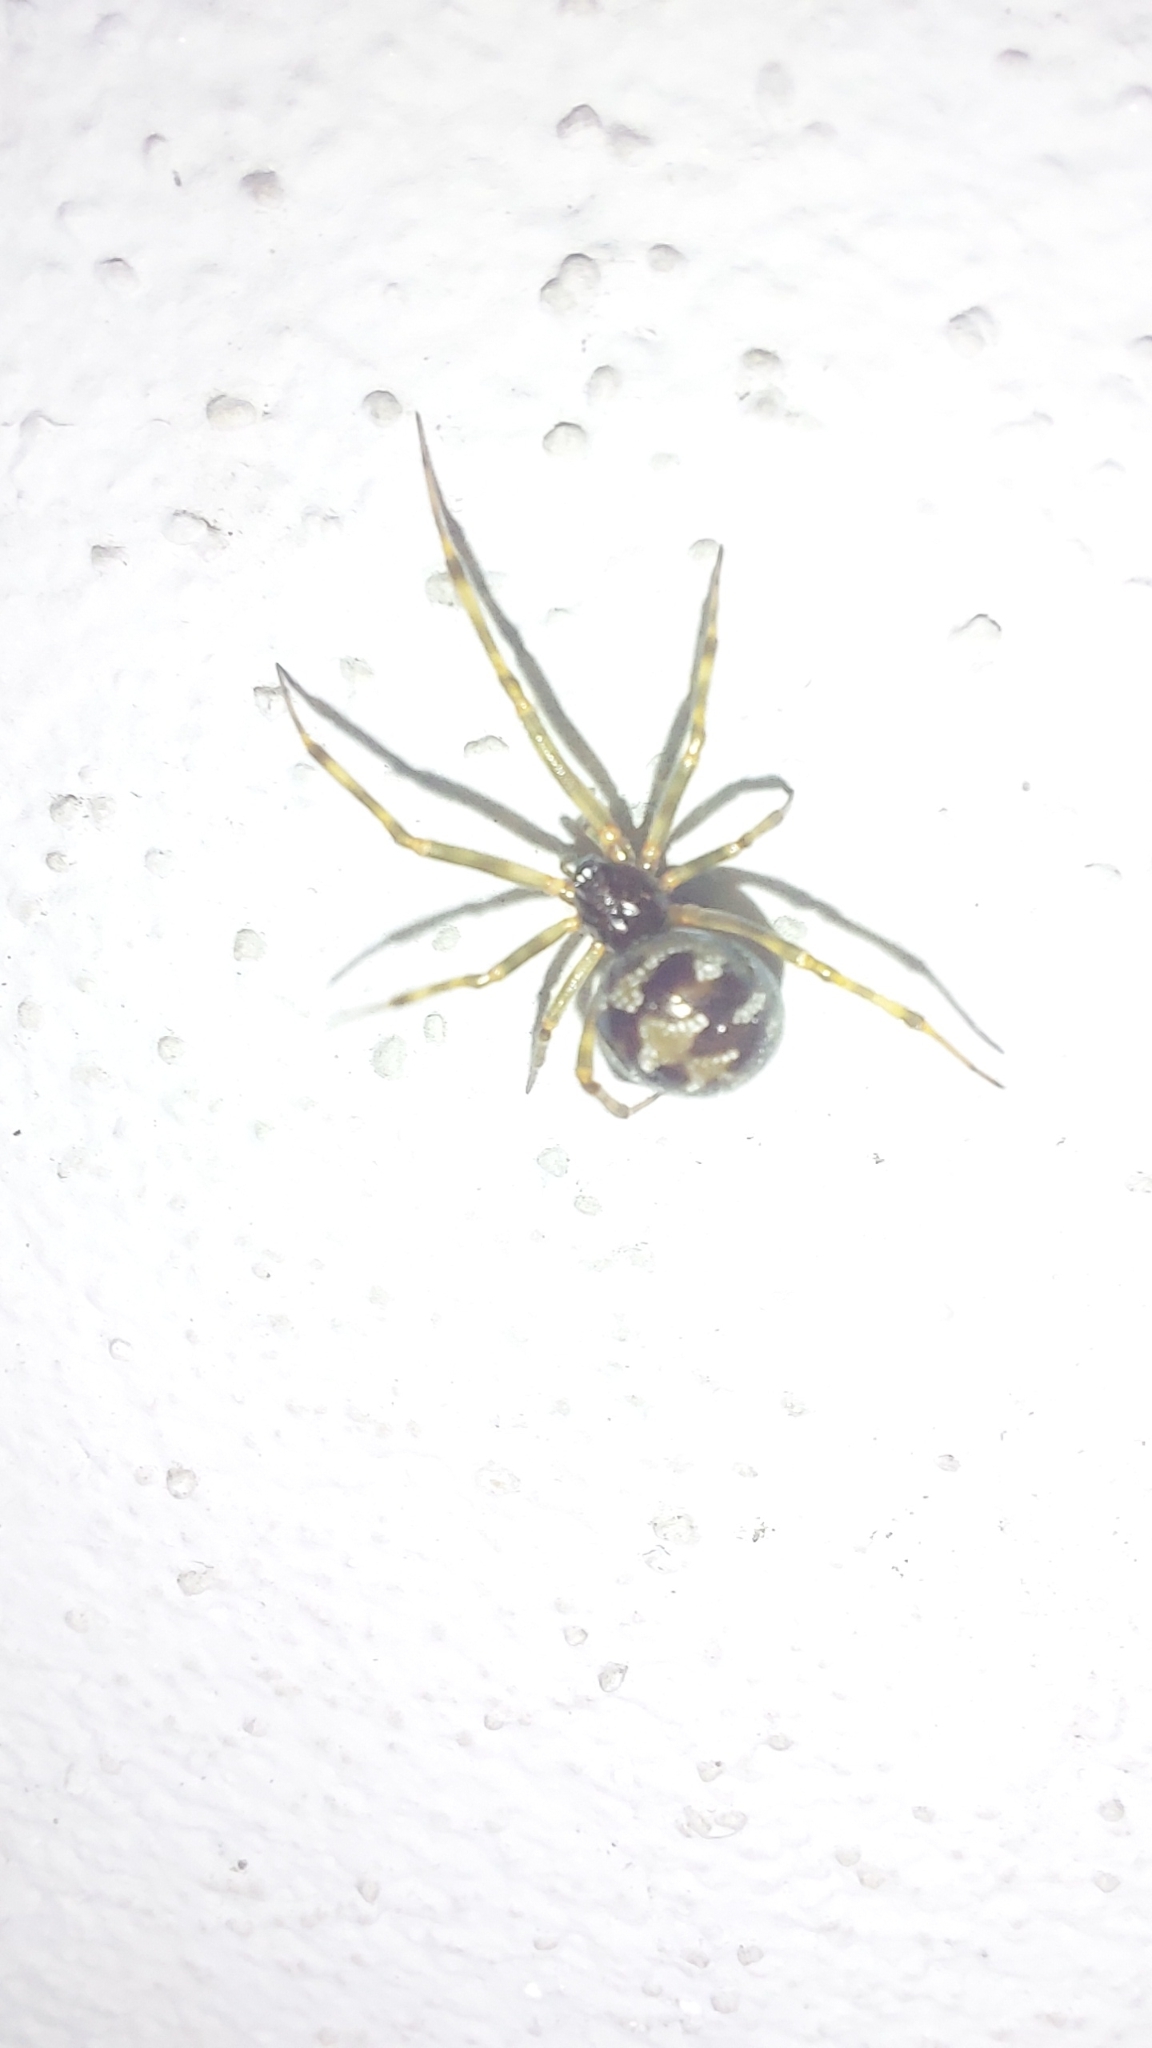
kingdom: Animalia
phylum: Arthropoda
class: Arachnida
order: Araneae
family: Theridiidae
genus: Steatoda
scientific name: Steatoda triangulosa
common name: Triangulate bud spider
